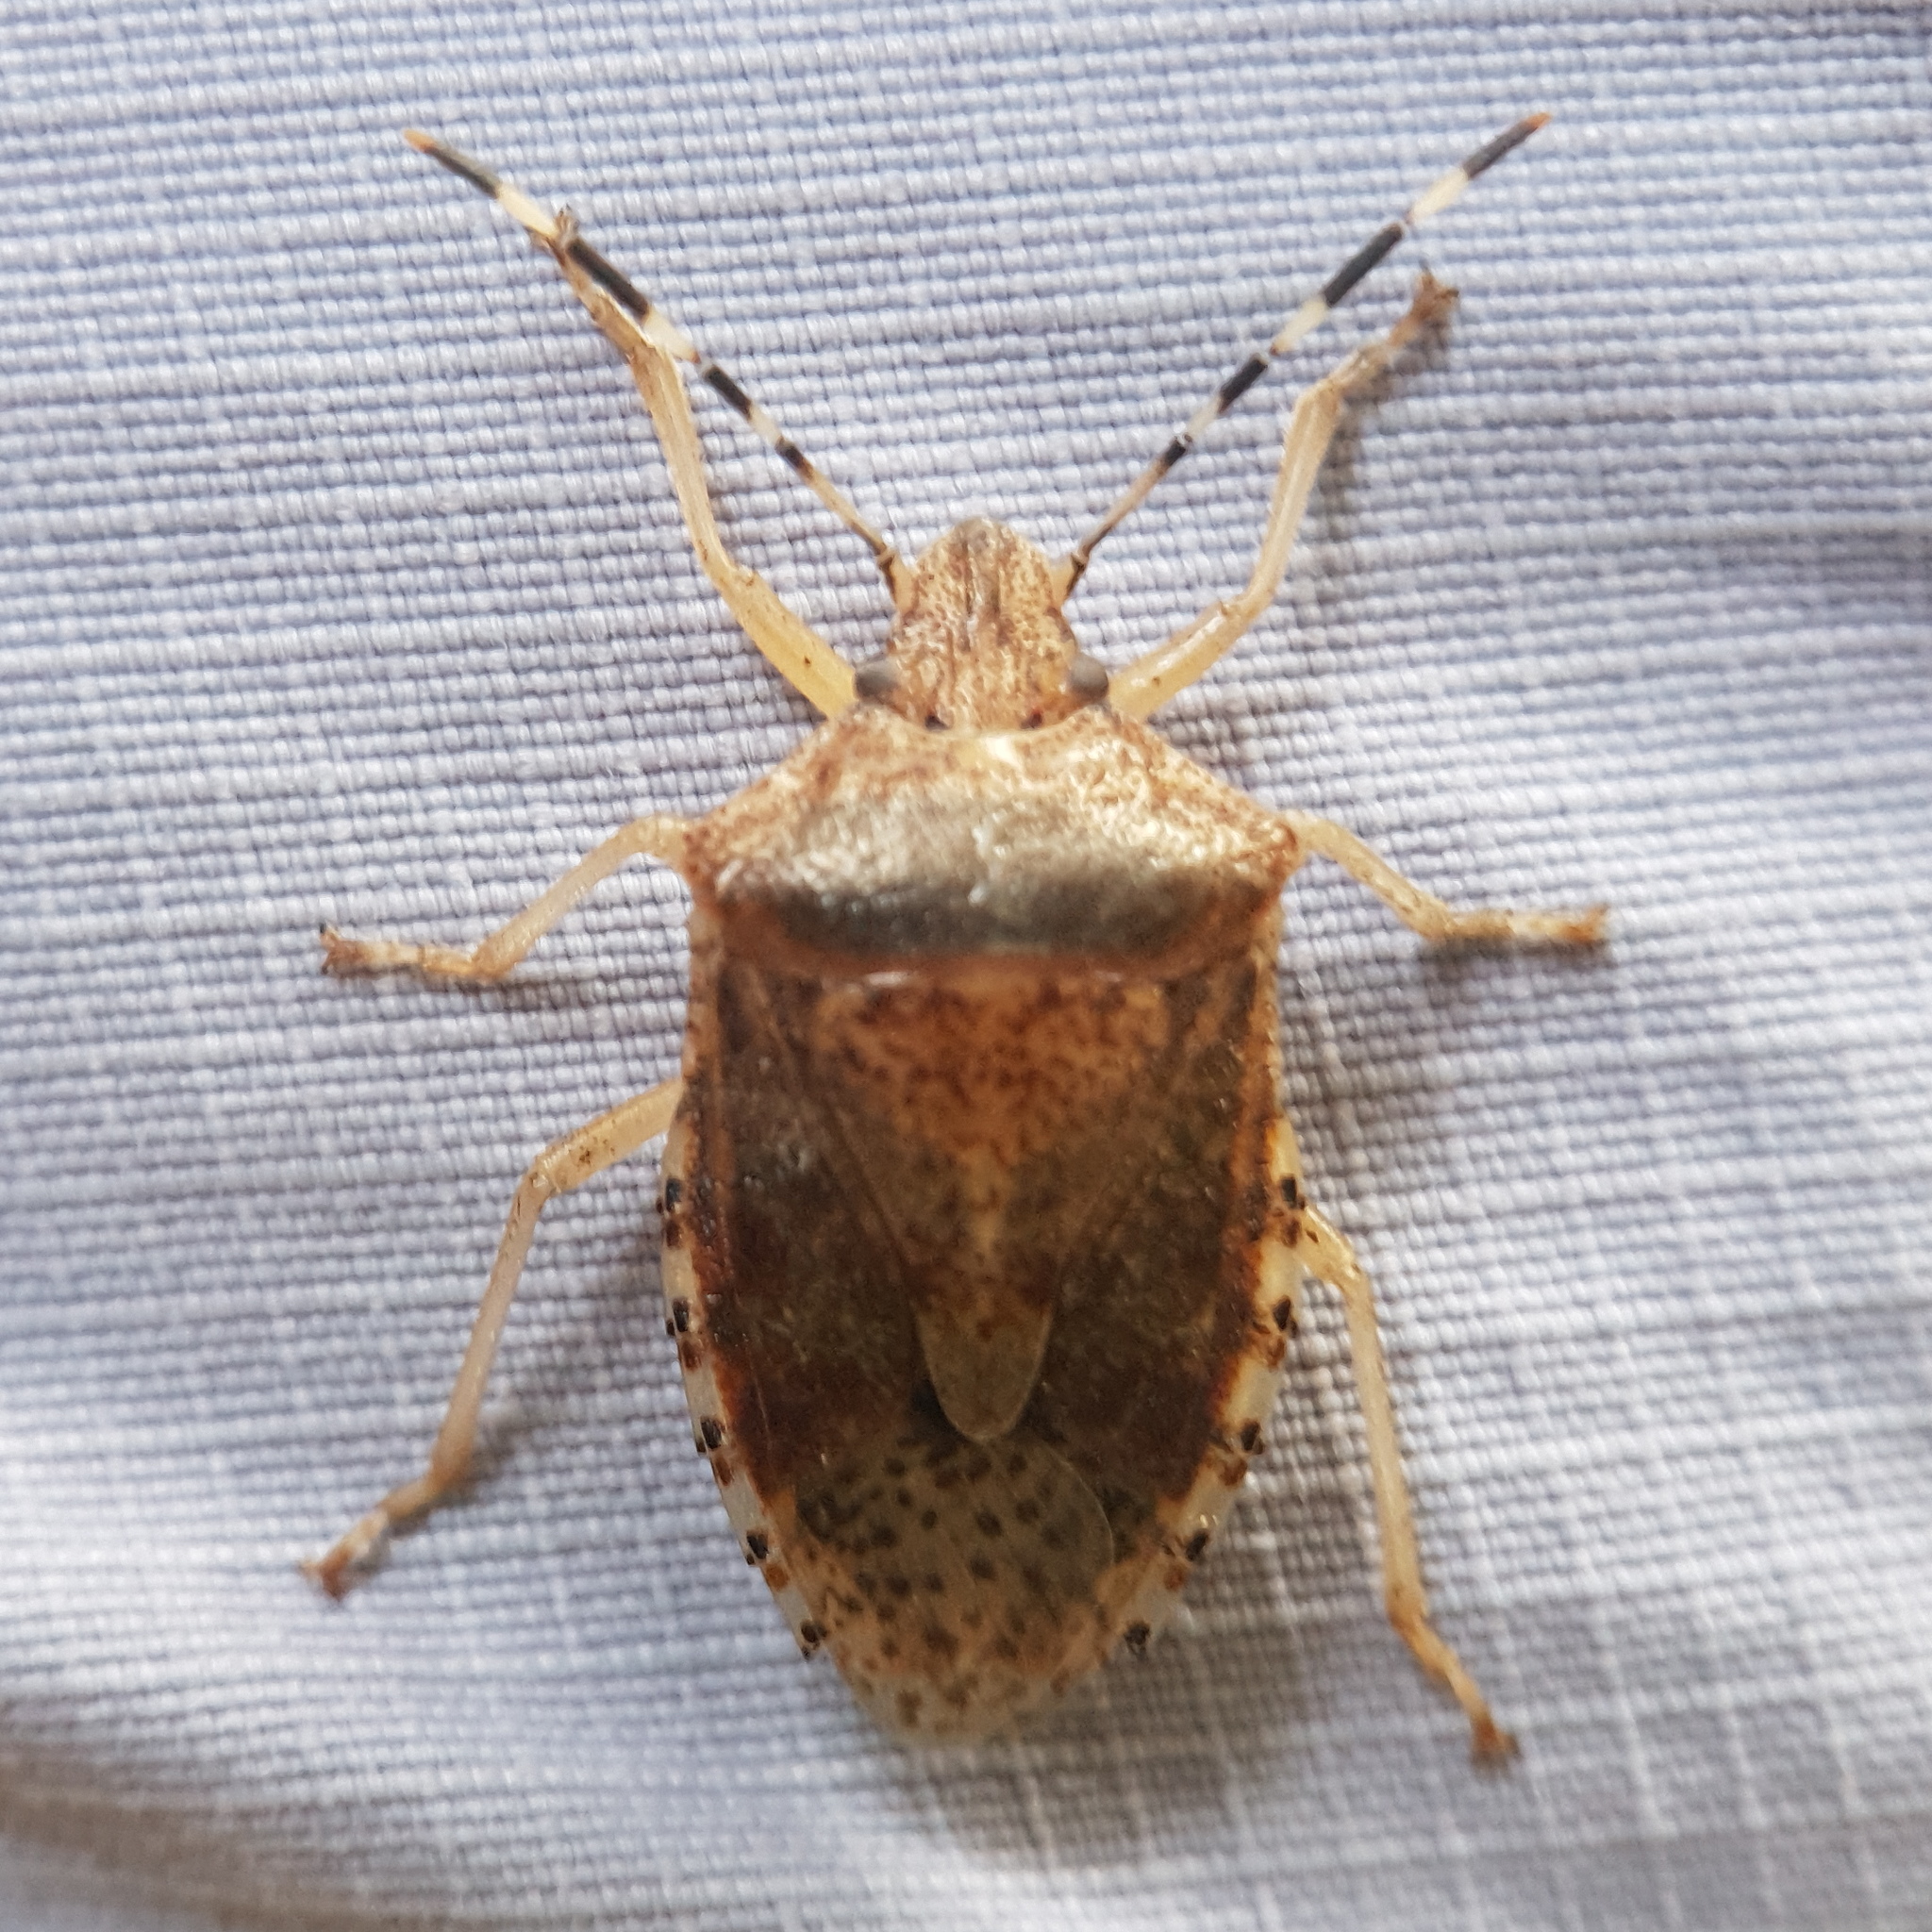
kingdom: Animalia
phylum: Arthropoda
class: Insecta
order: Hemiptera
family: Pentatomidae
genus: Rhaphigaster
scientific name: Rhaphigaster nebulosa
